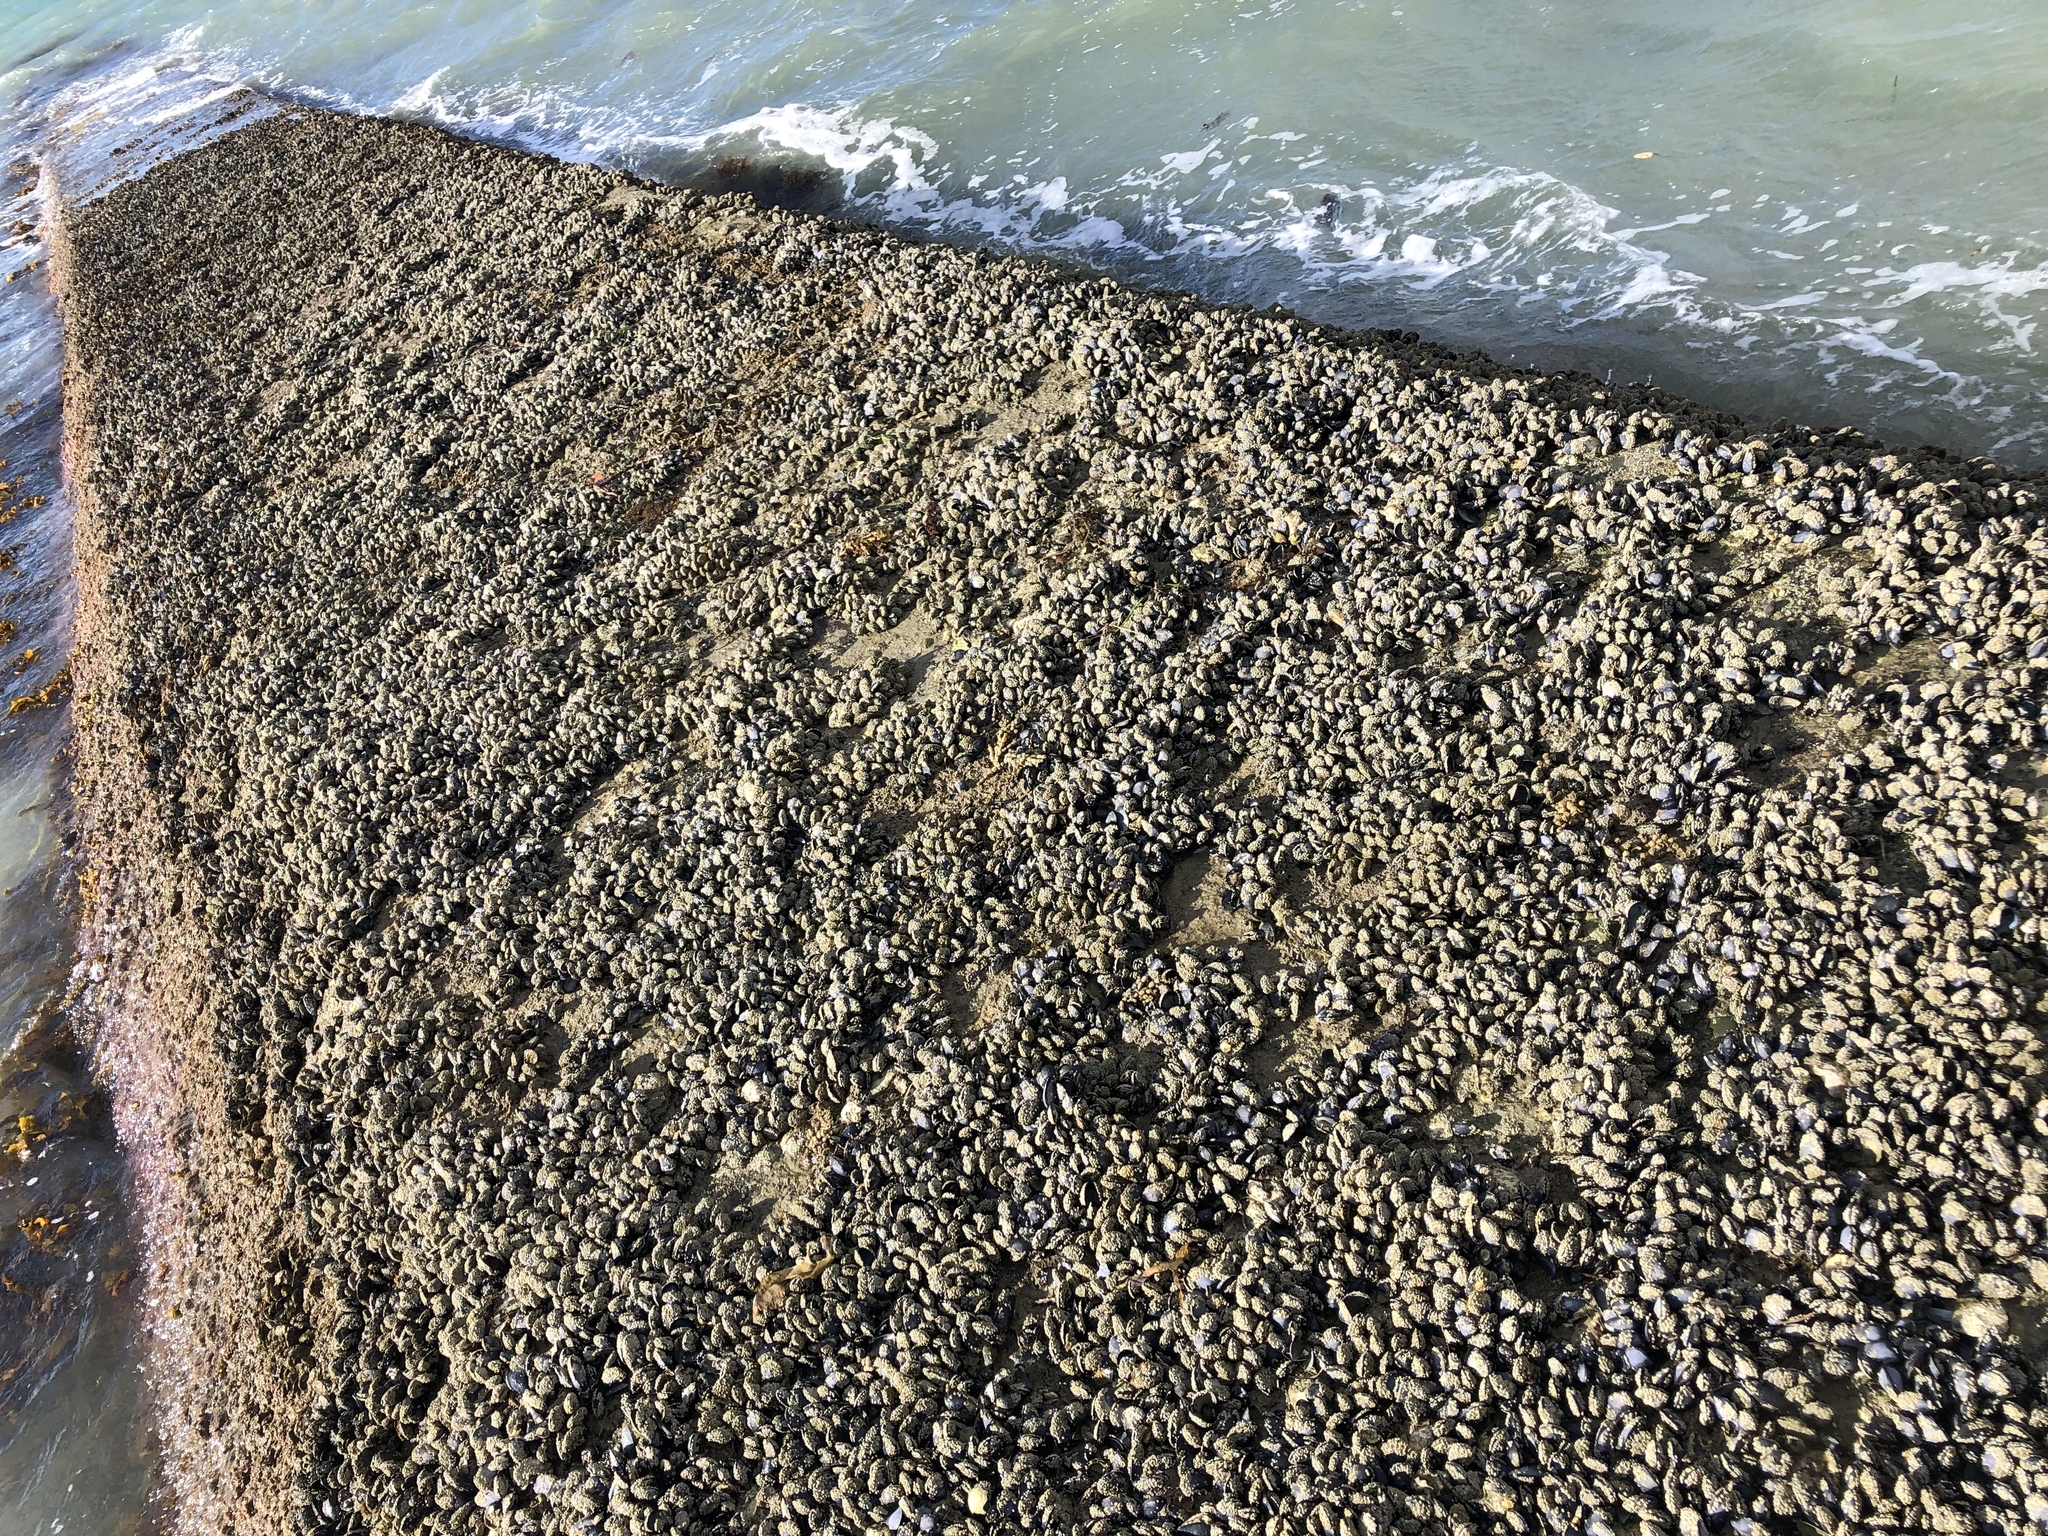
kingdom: Animalia
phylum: Mollusca
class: Bivalvia
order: Mytilida
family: Mytilidae
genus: Mytilus
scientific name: Mytilus planulatus
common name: Australian mussel
